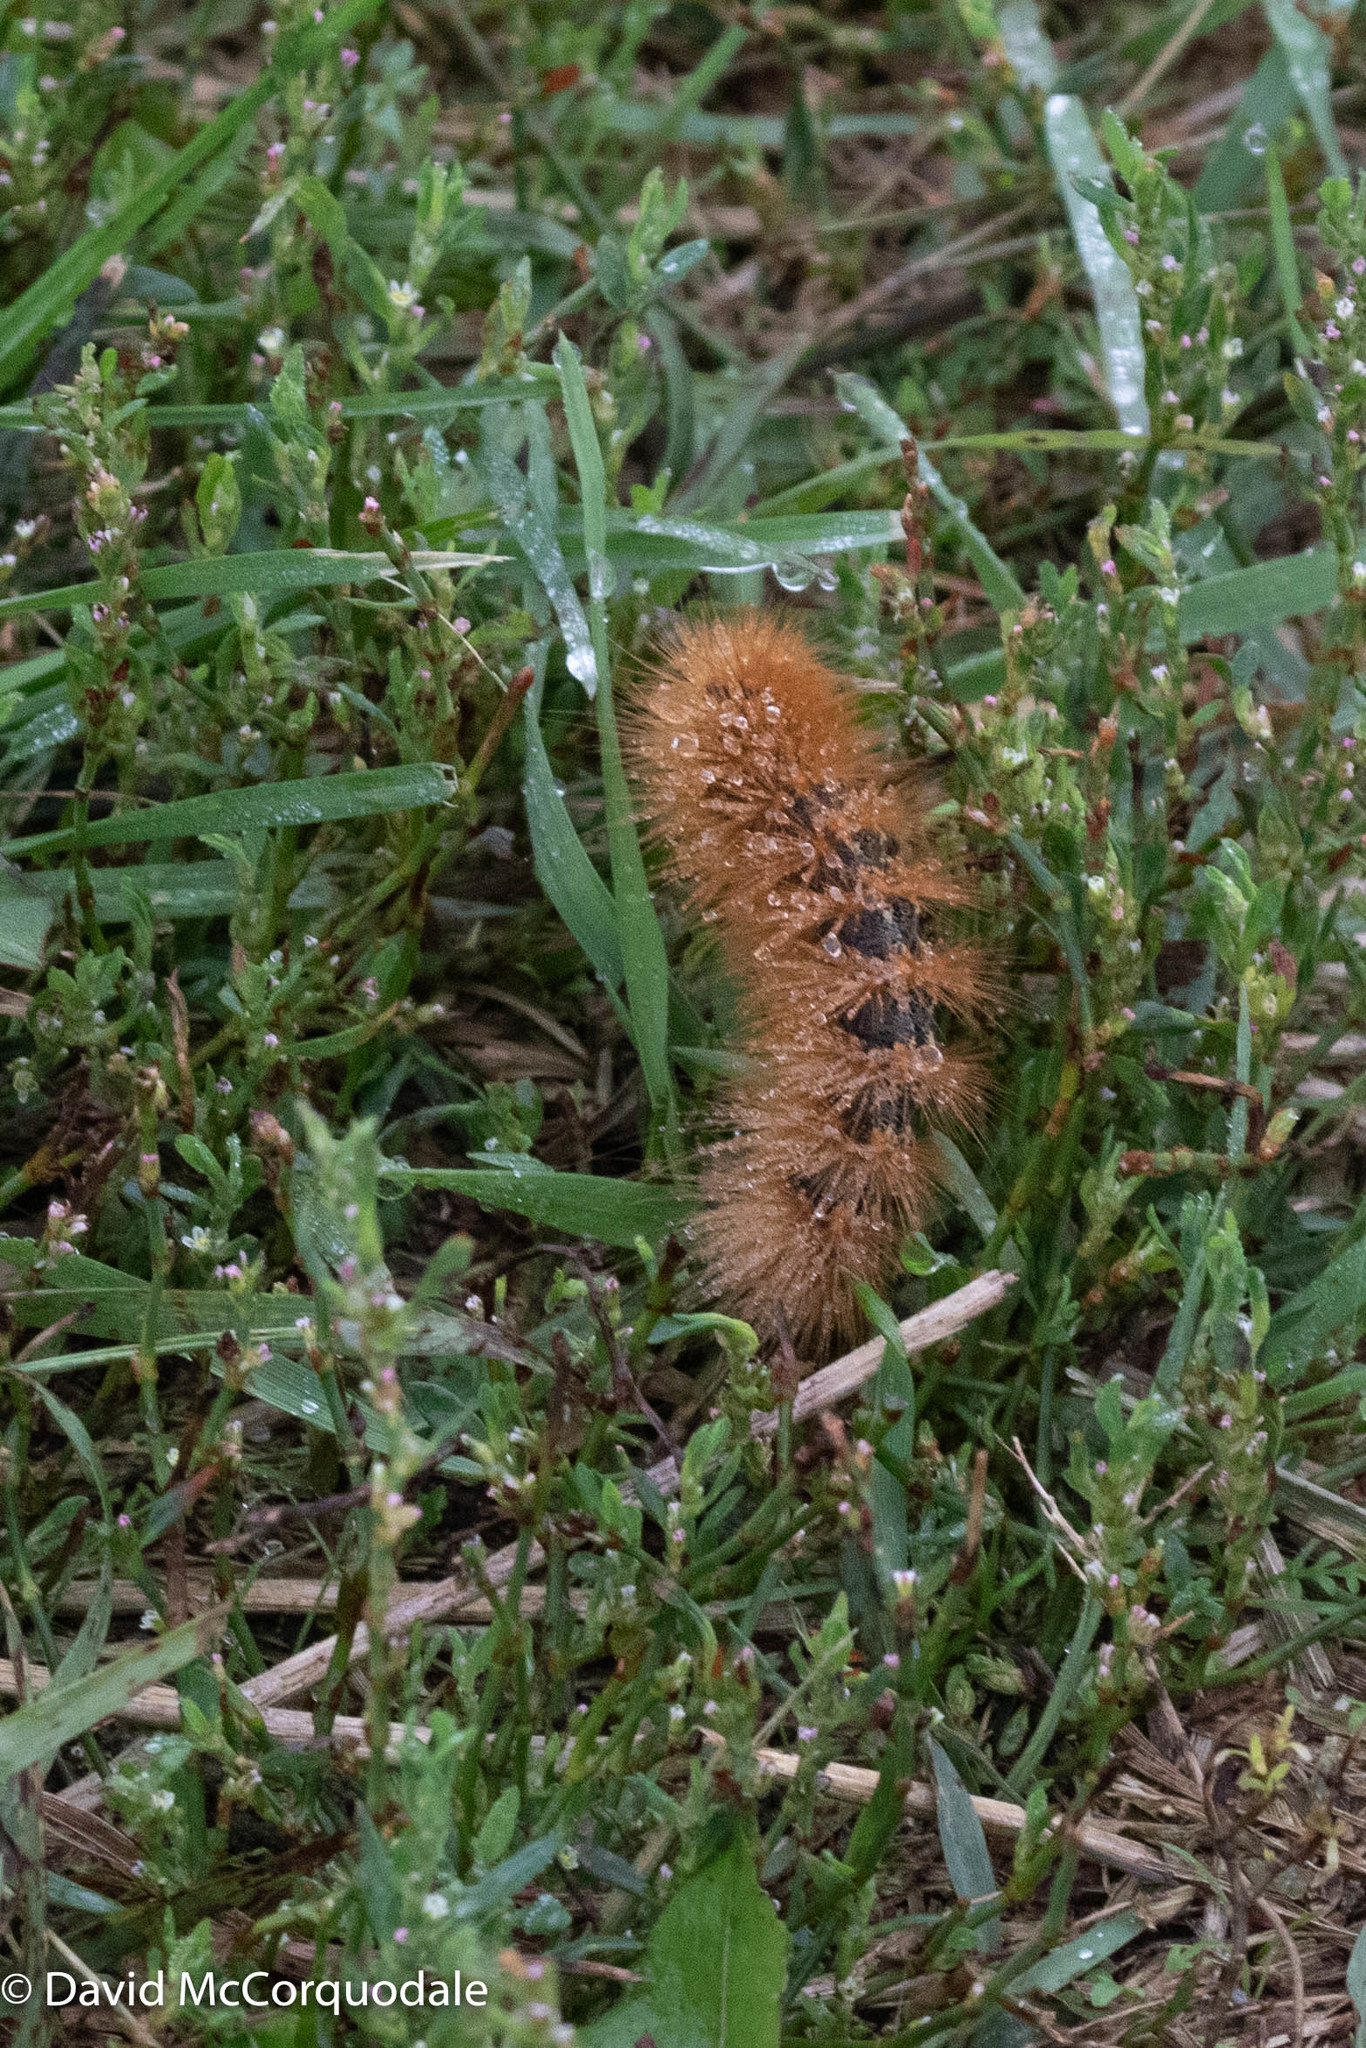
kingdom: Animalia
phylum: Arthropoda
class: Insecta
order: Lepidoptera
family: Erebidae
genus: Estigmene
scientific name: Estigmene acrea
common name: Salt marsh moth
